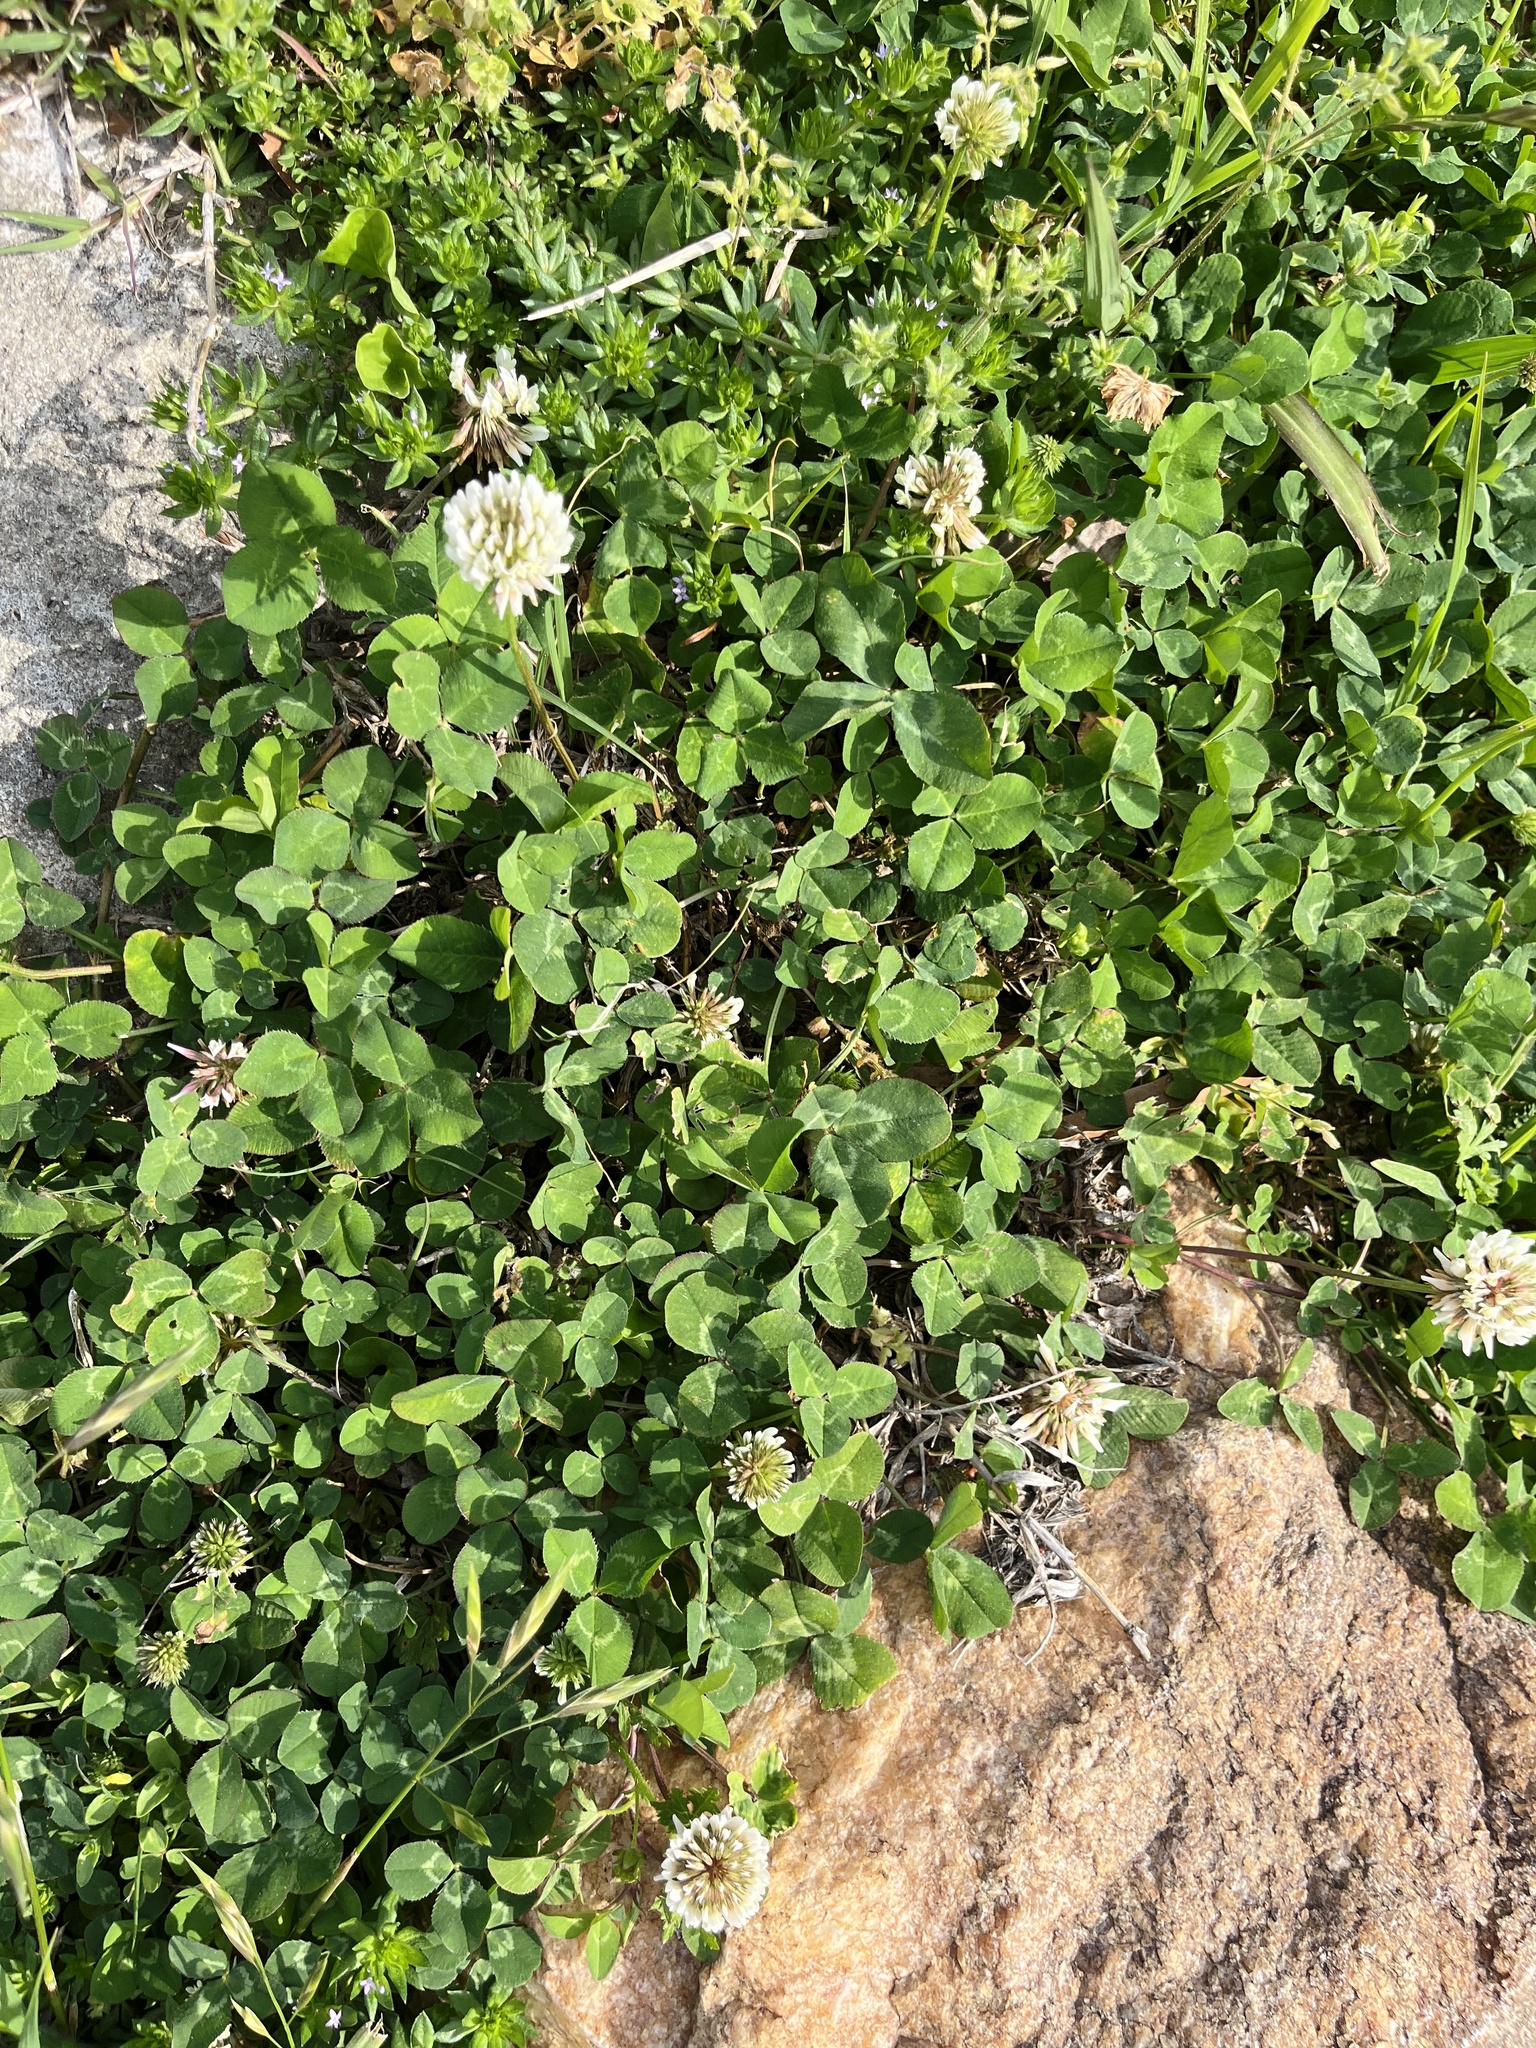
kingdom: Plantae
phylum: Tracheophyta
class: Magnoliopsida
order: Fabales
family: Fabaceae
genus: Trifolium
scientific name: Trifolium repens
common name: White clover
